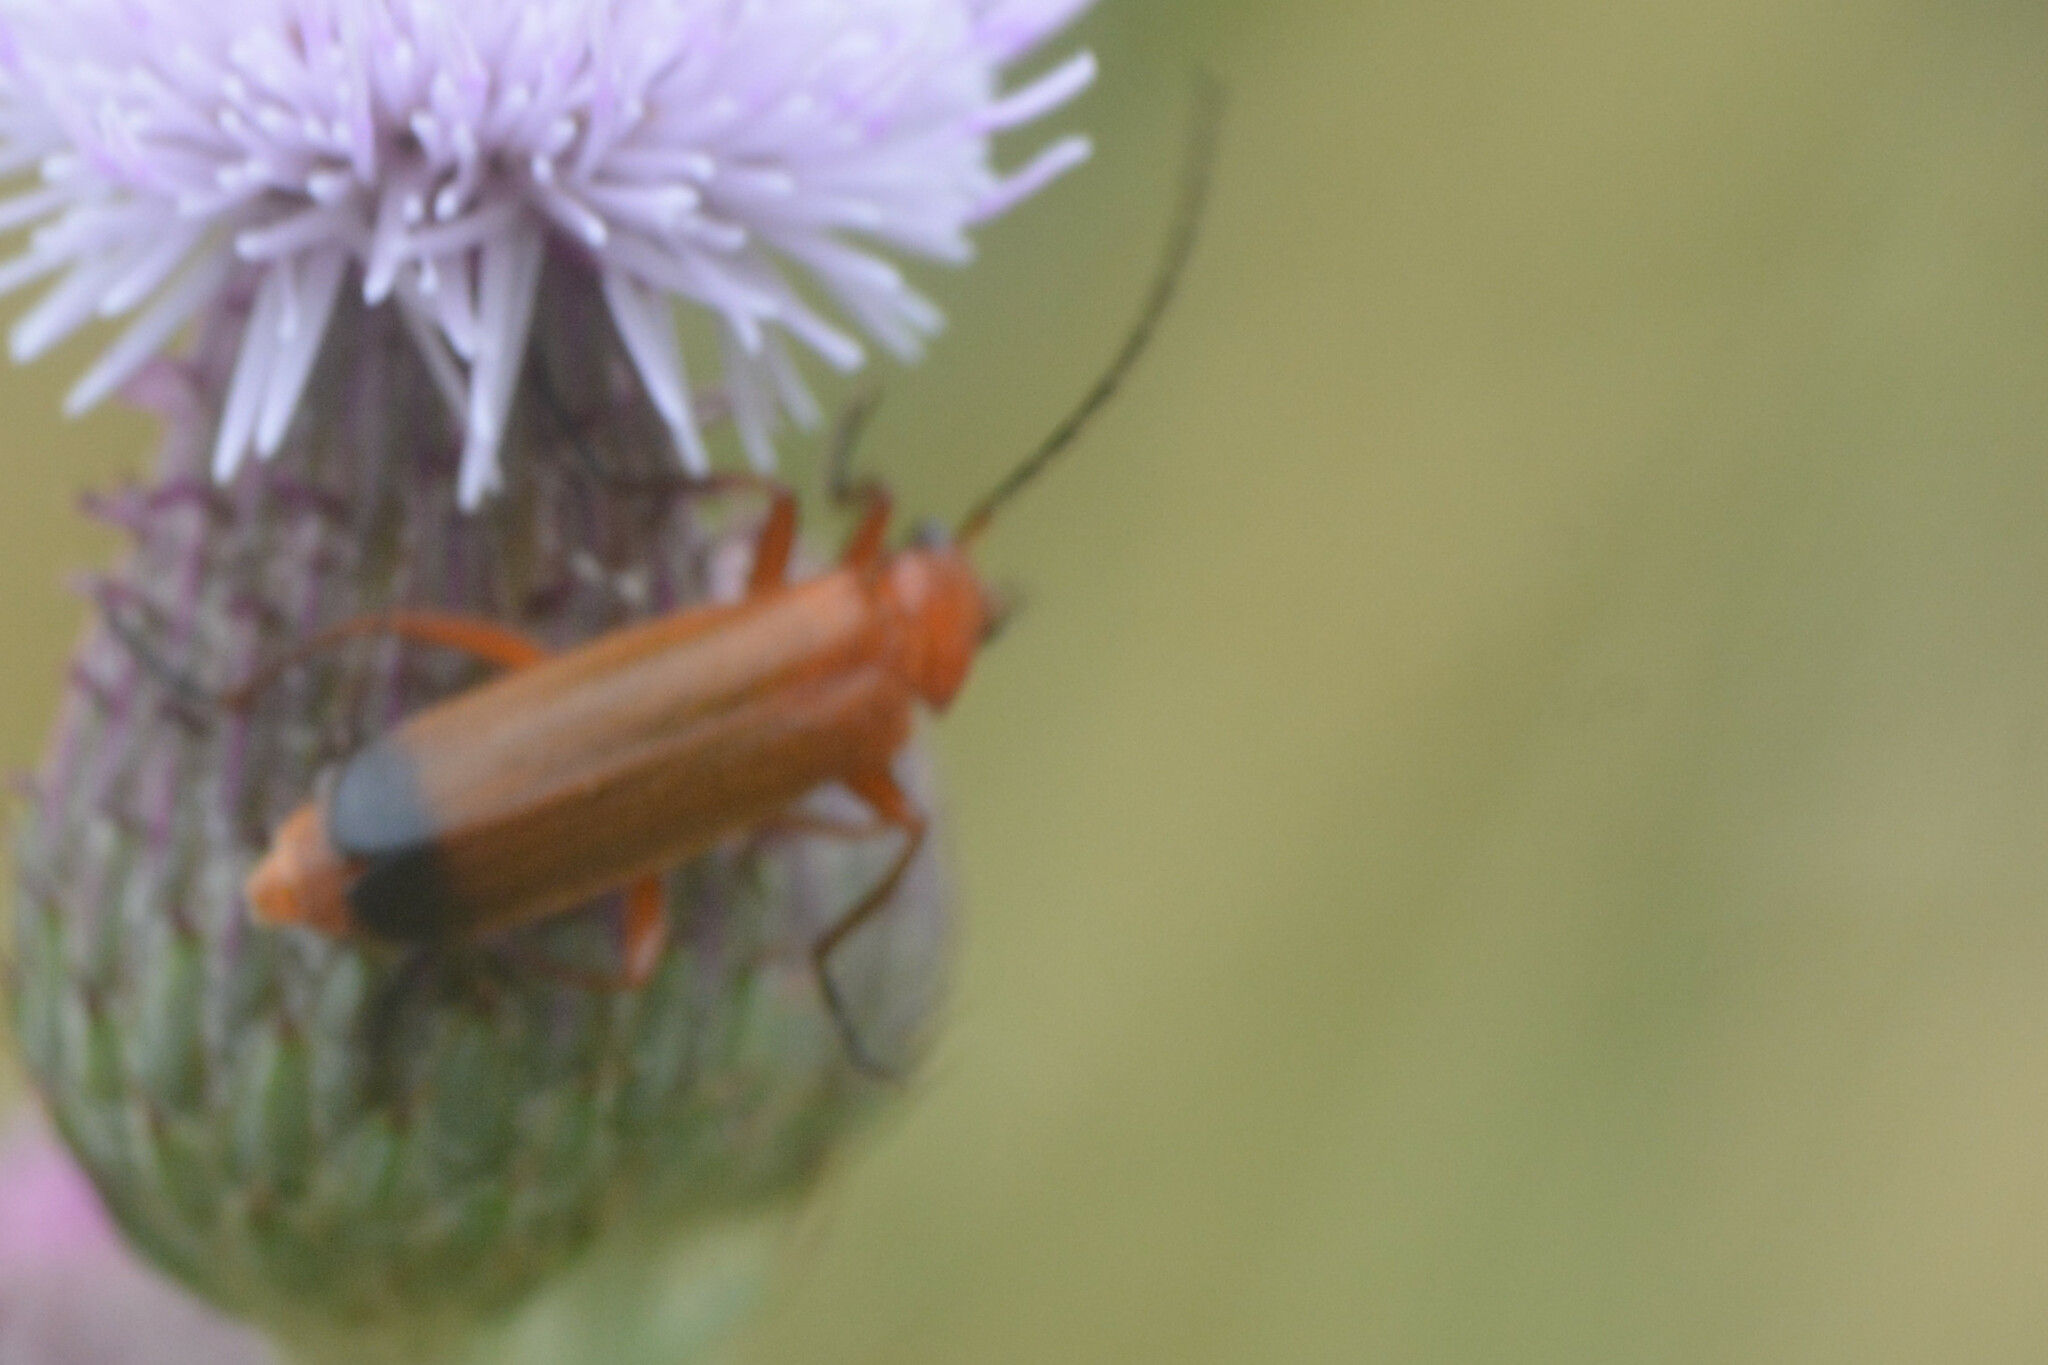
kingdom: Animalia
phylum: Arthropoda
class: Insecta
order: Coleoptera
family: Cantharidae
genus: Rhagonycha
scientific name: Rhagonycha fulva
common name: Common red soldier beetle
